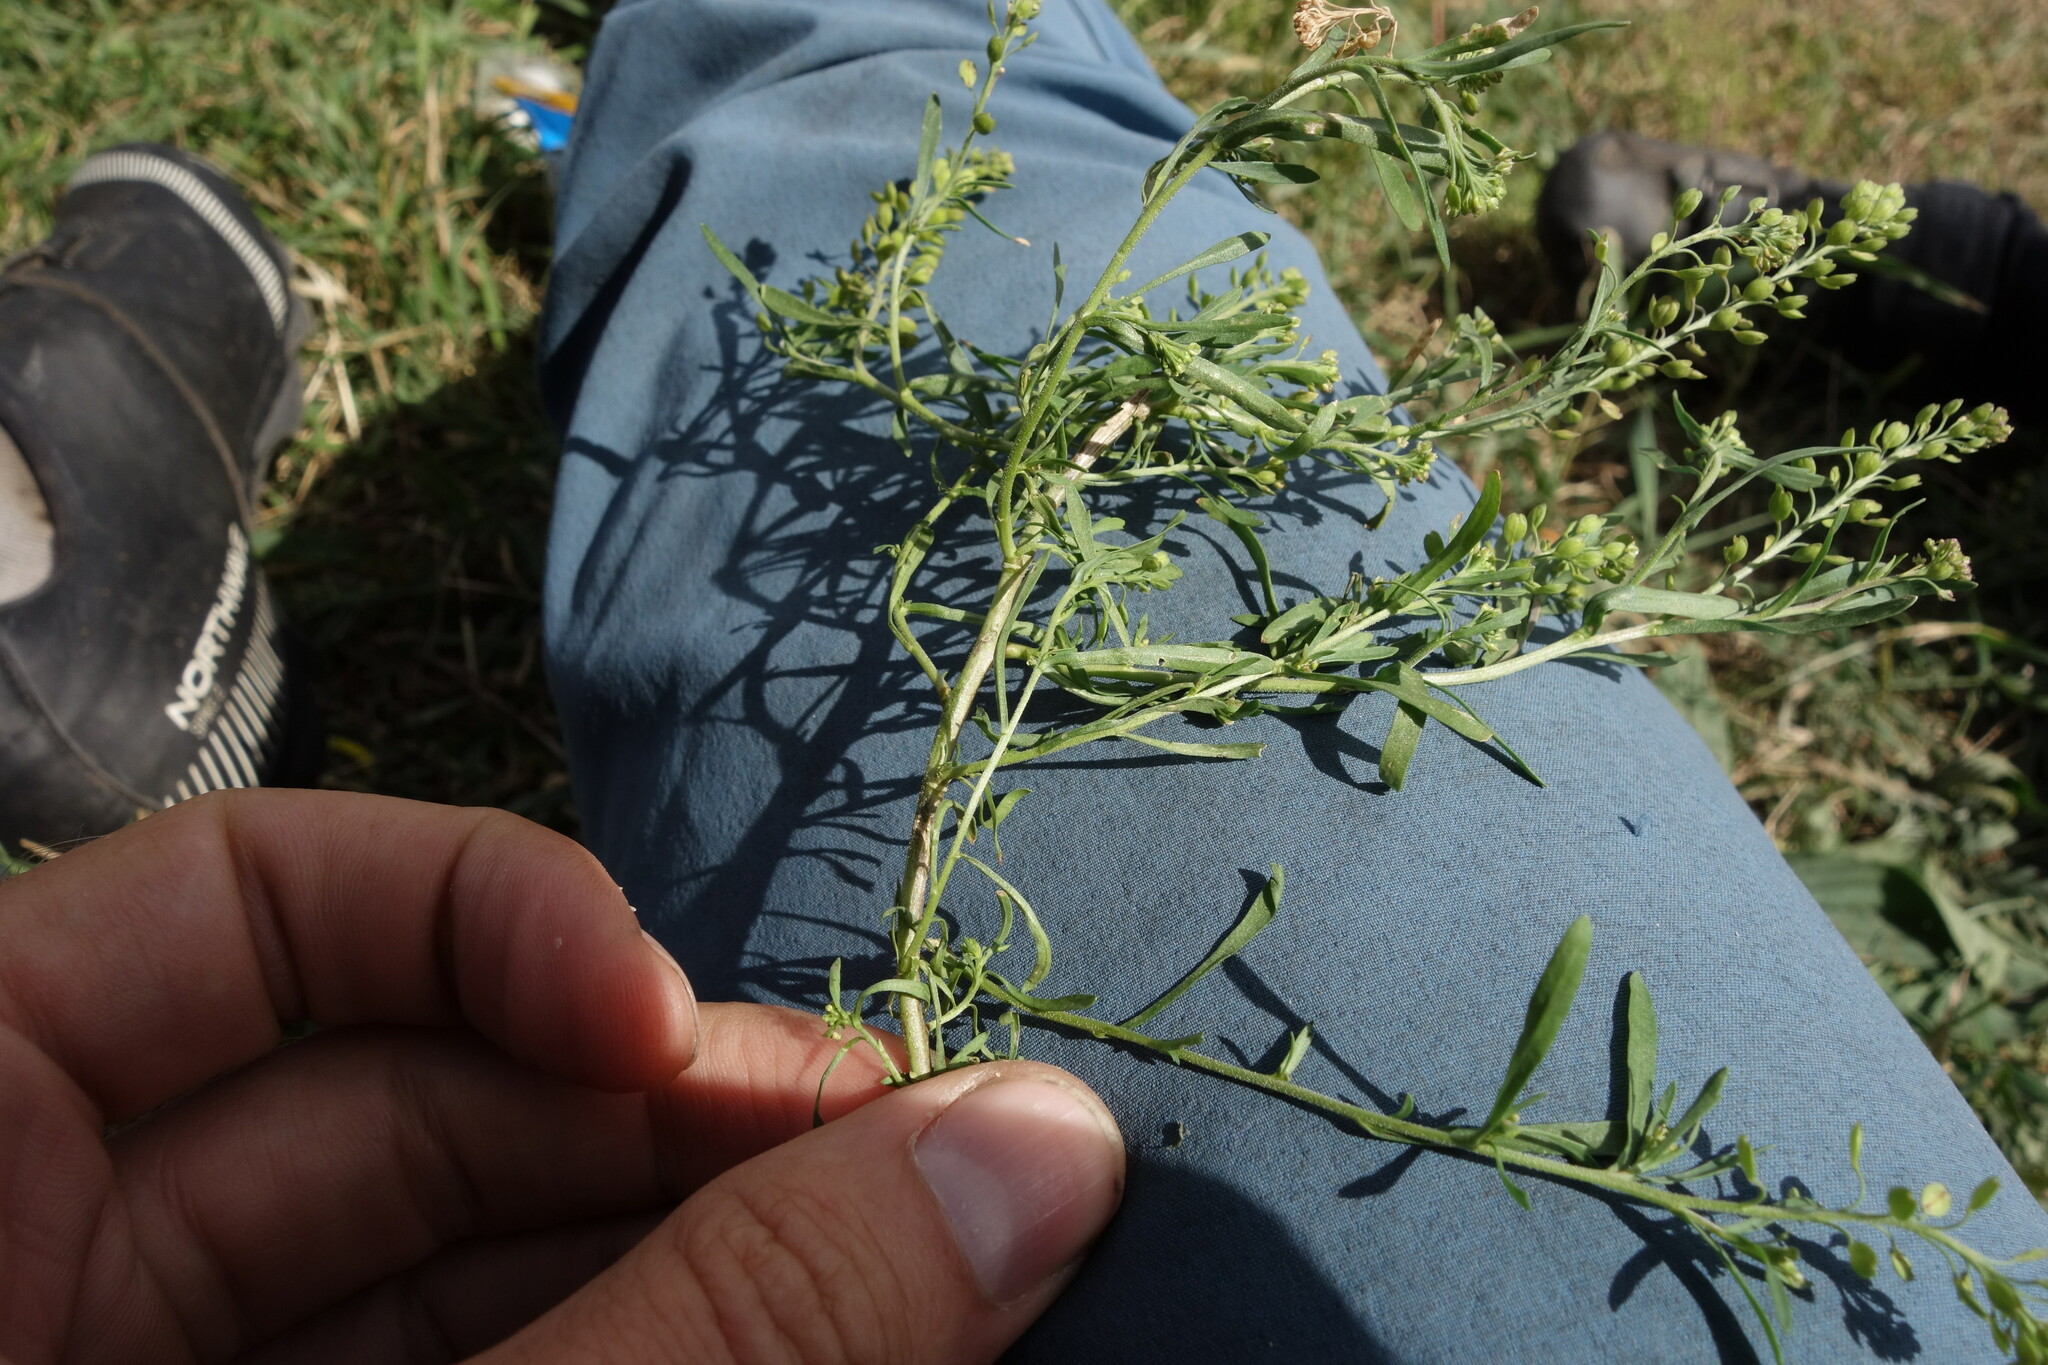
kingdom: Plantae
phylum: Tracheophyta
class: Magnoliopsida
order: Brassicales
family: Brassicaceae
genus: Lepidium
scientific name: Lepidium apetalum
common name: Pepperweed
